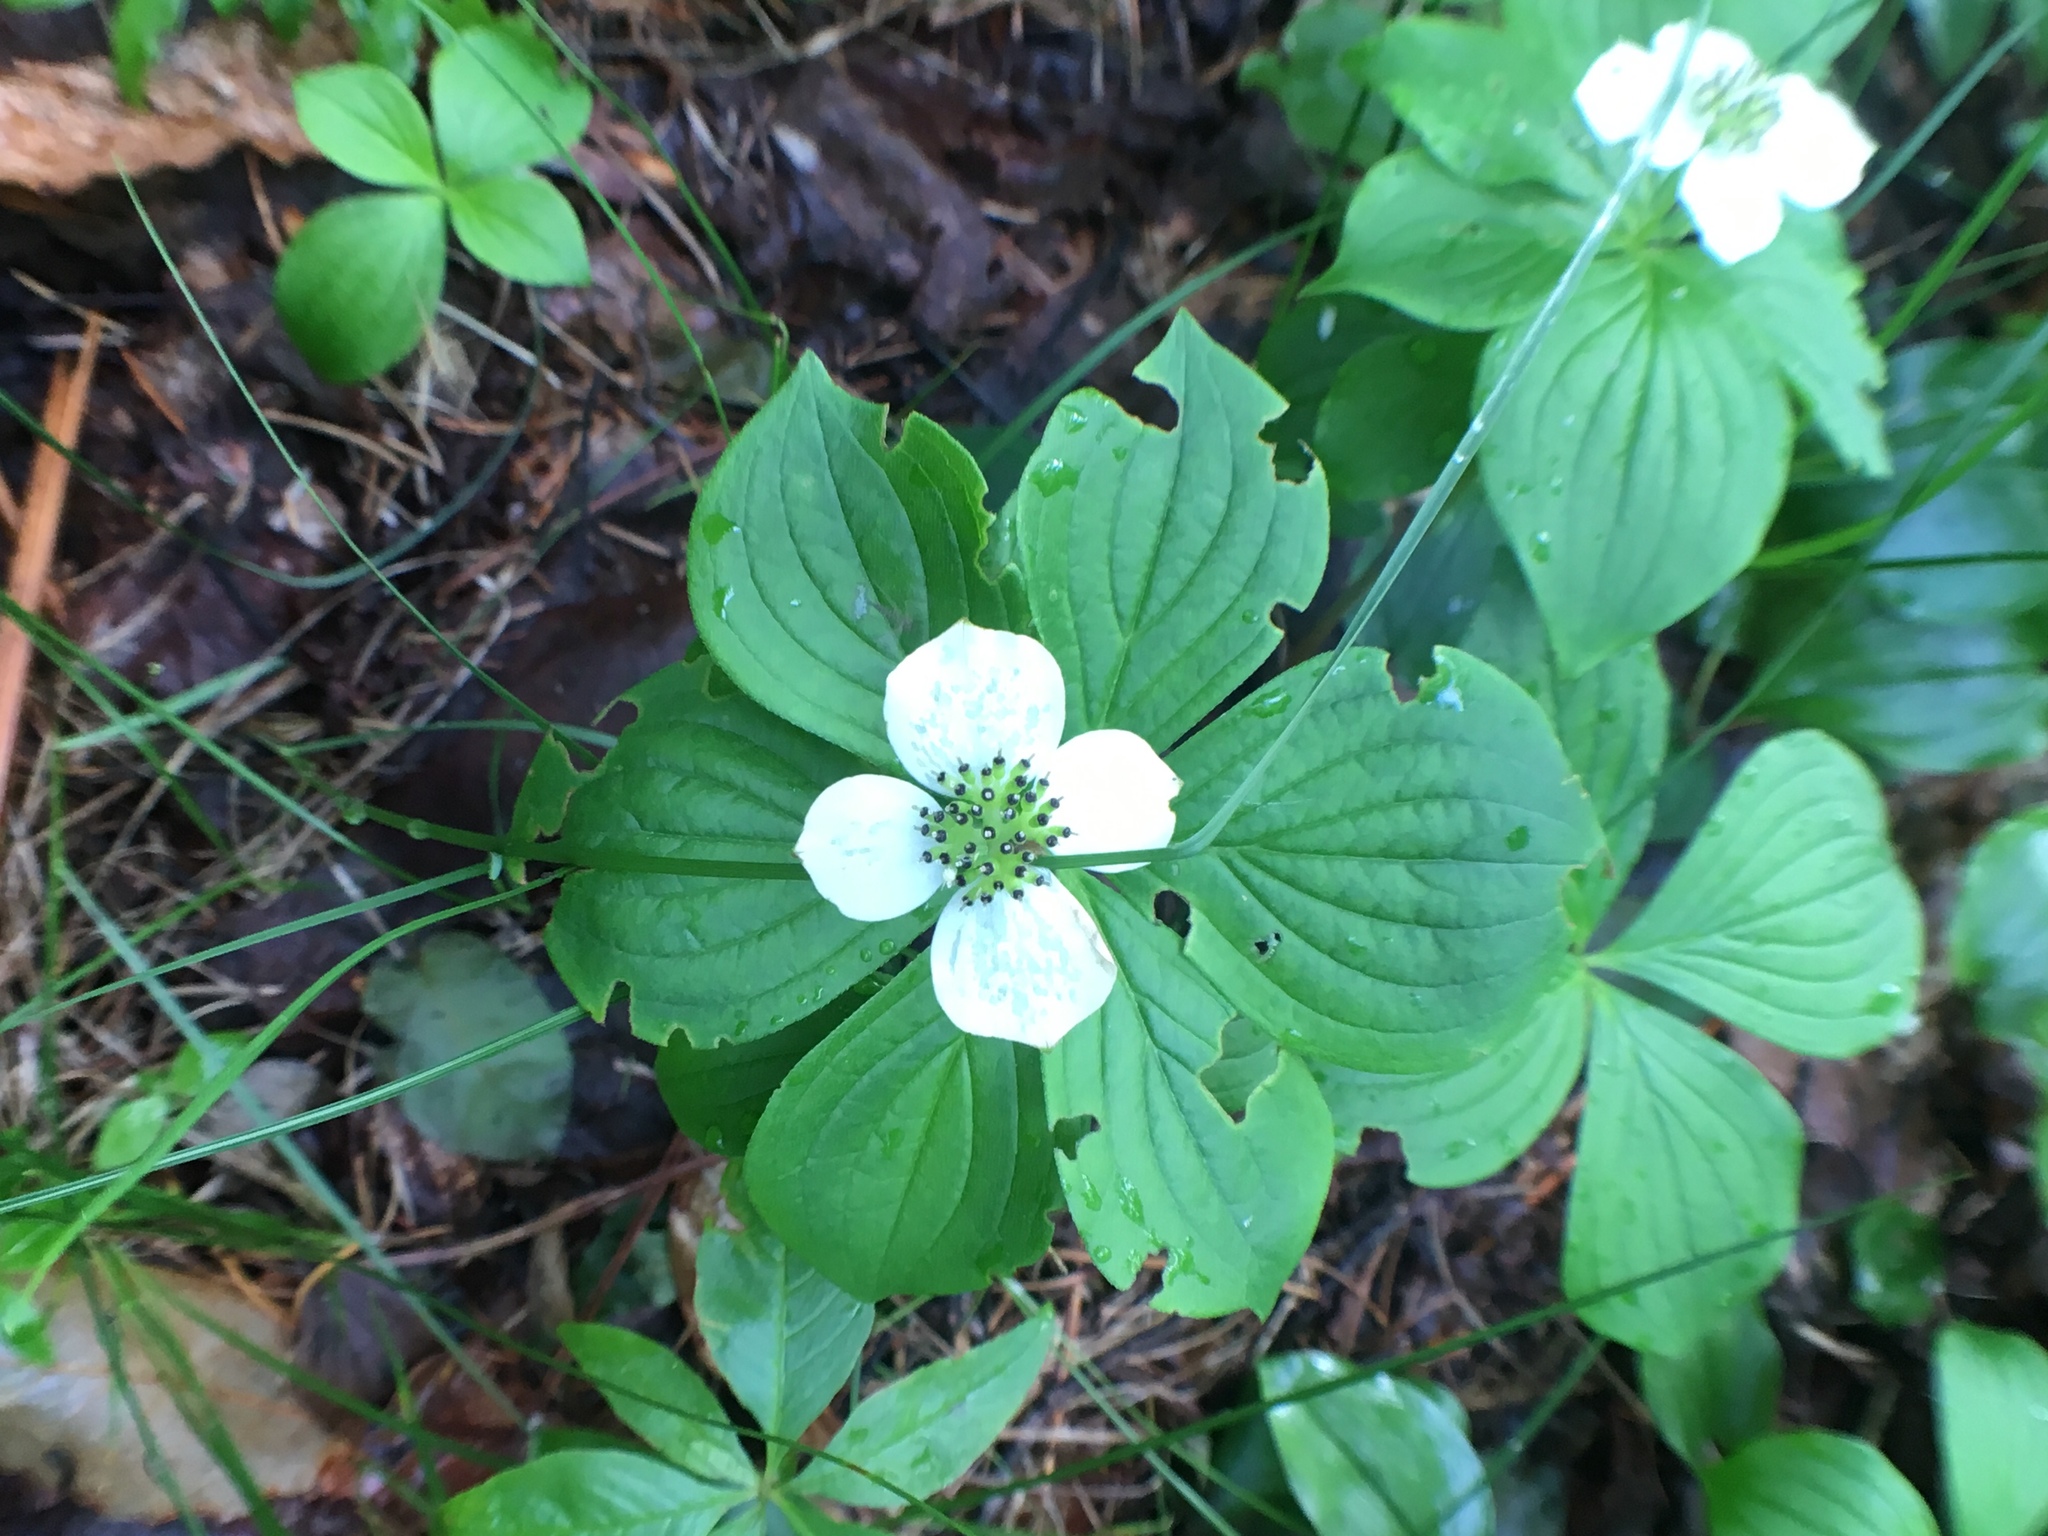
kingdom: Plantae
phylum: Tracheophyta
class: Magnoliopsida
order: Cornales
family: Cornaceae
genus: Cornus
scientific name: Cornus canadensis
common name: Creeping dogwood
